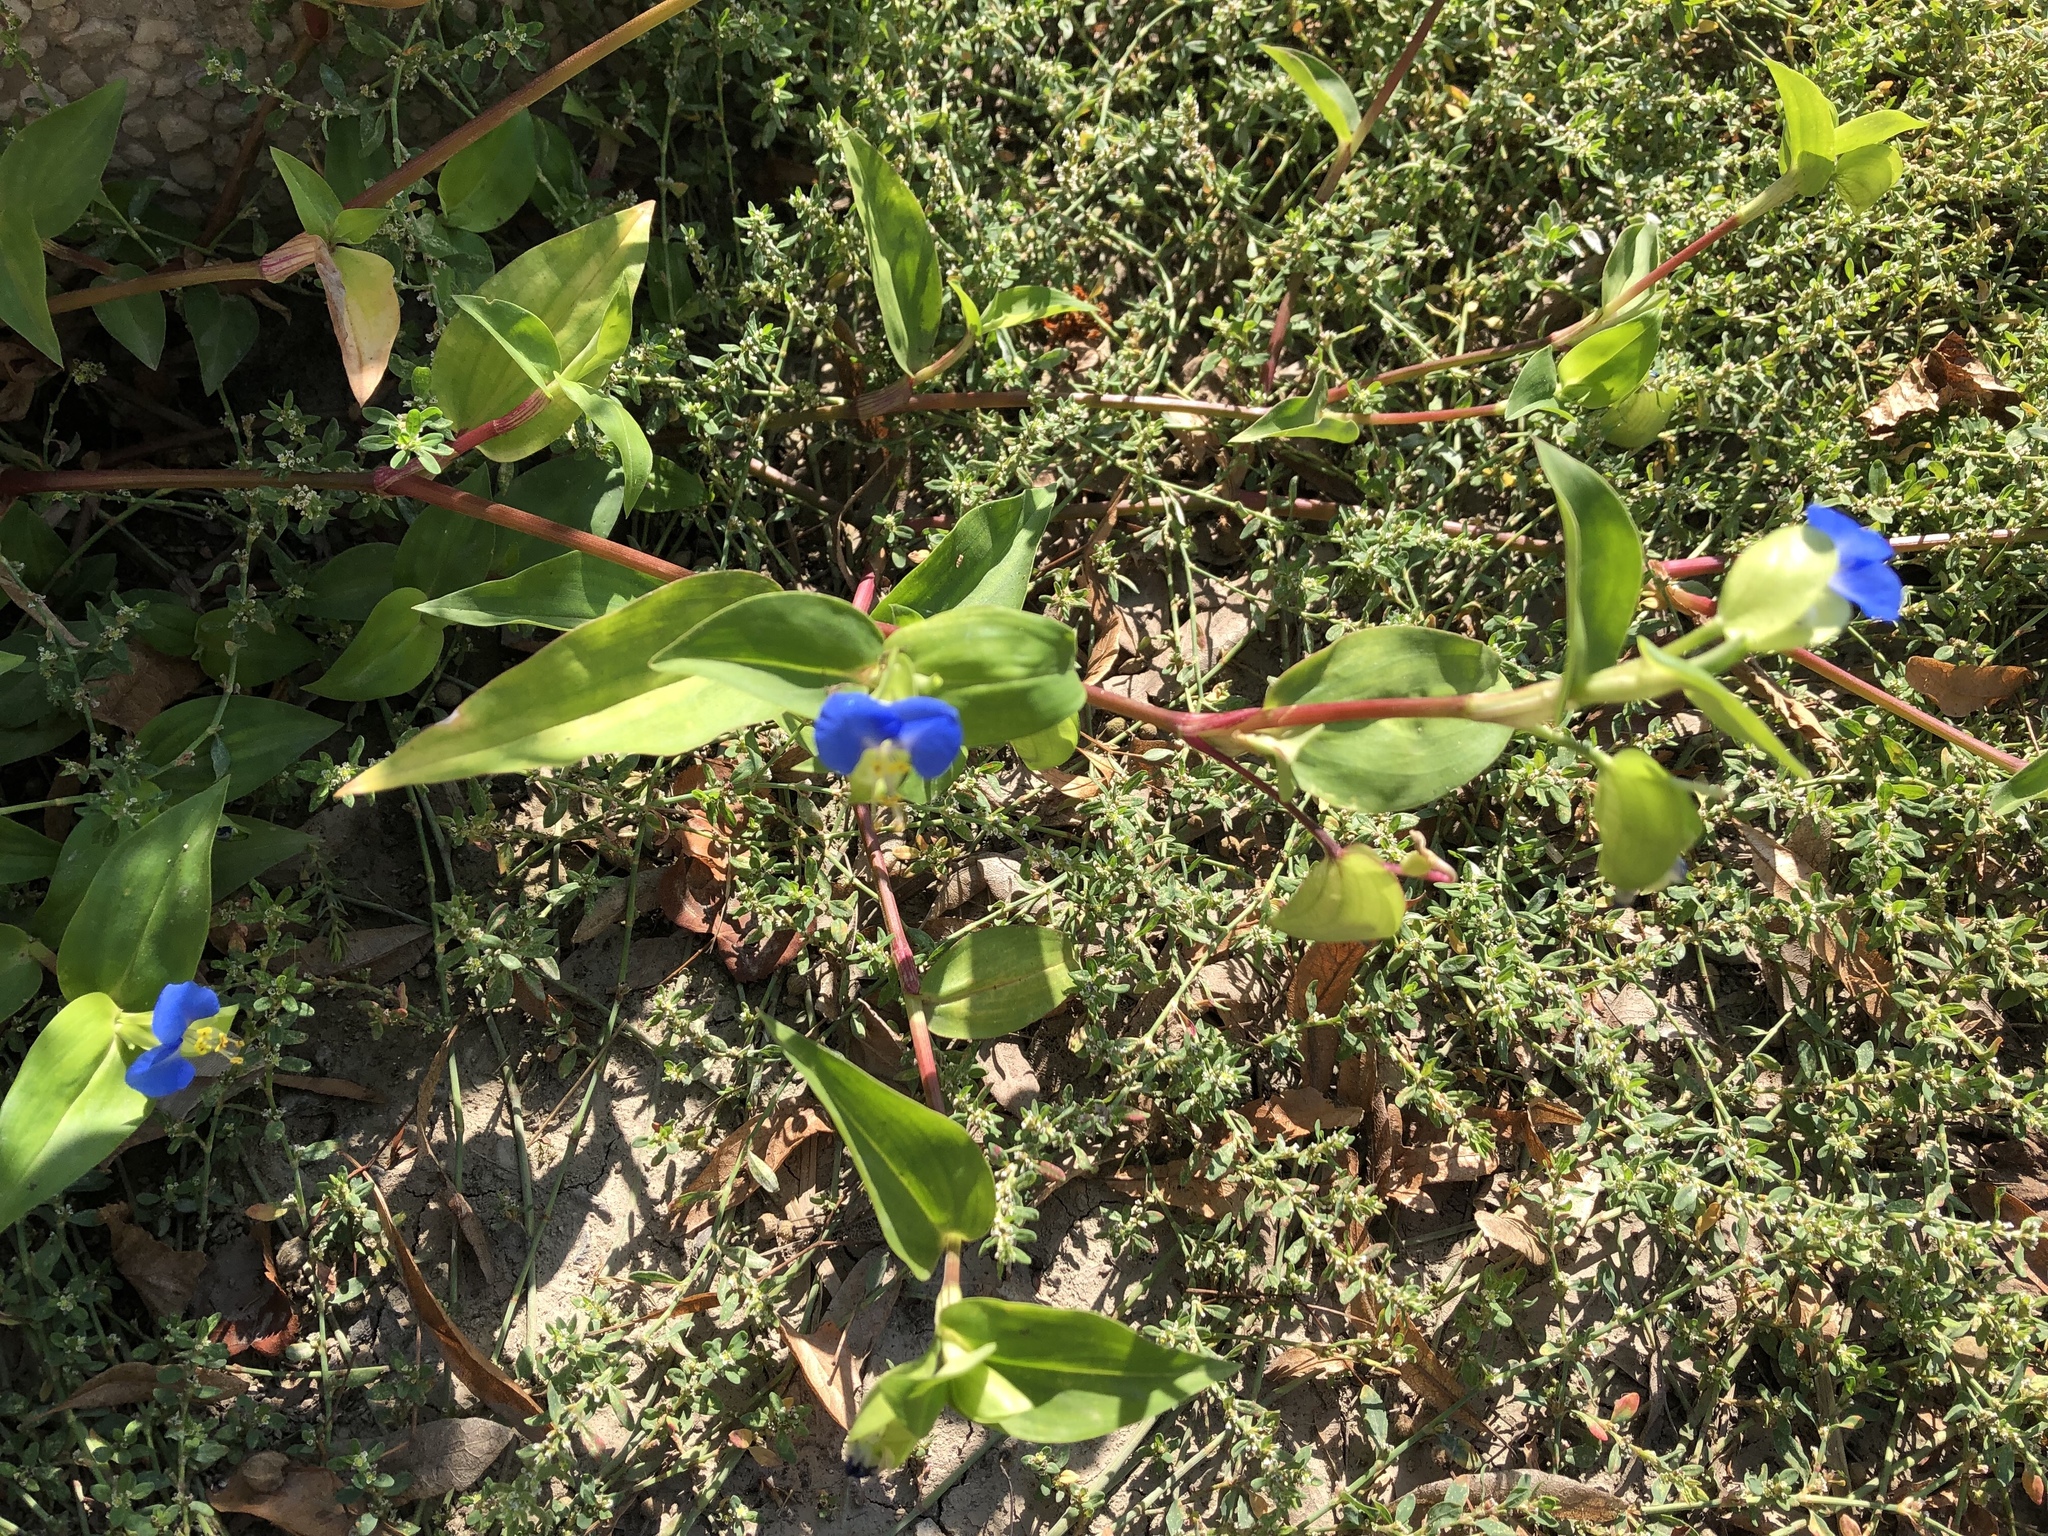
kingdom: Plantae
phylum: Tracheophyta
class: Liliopsida
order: Commelinales
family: Commelinaceae
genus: Commelina
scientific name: Commelina communis
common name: Asiatic dayflower
